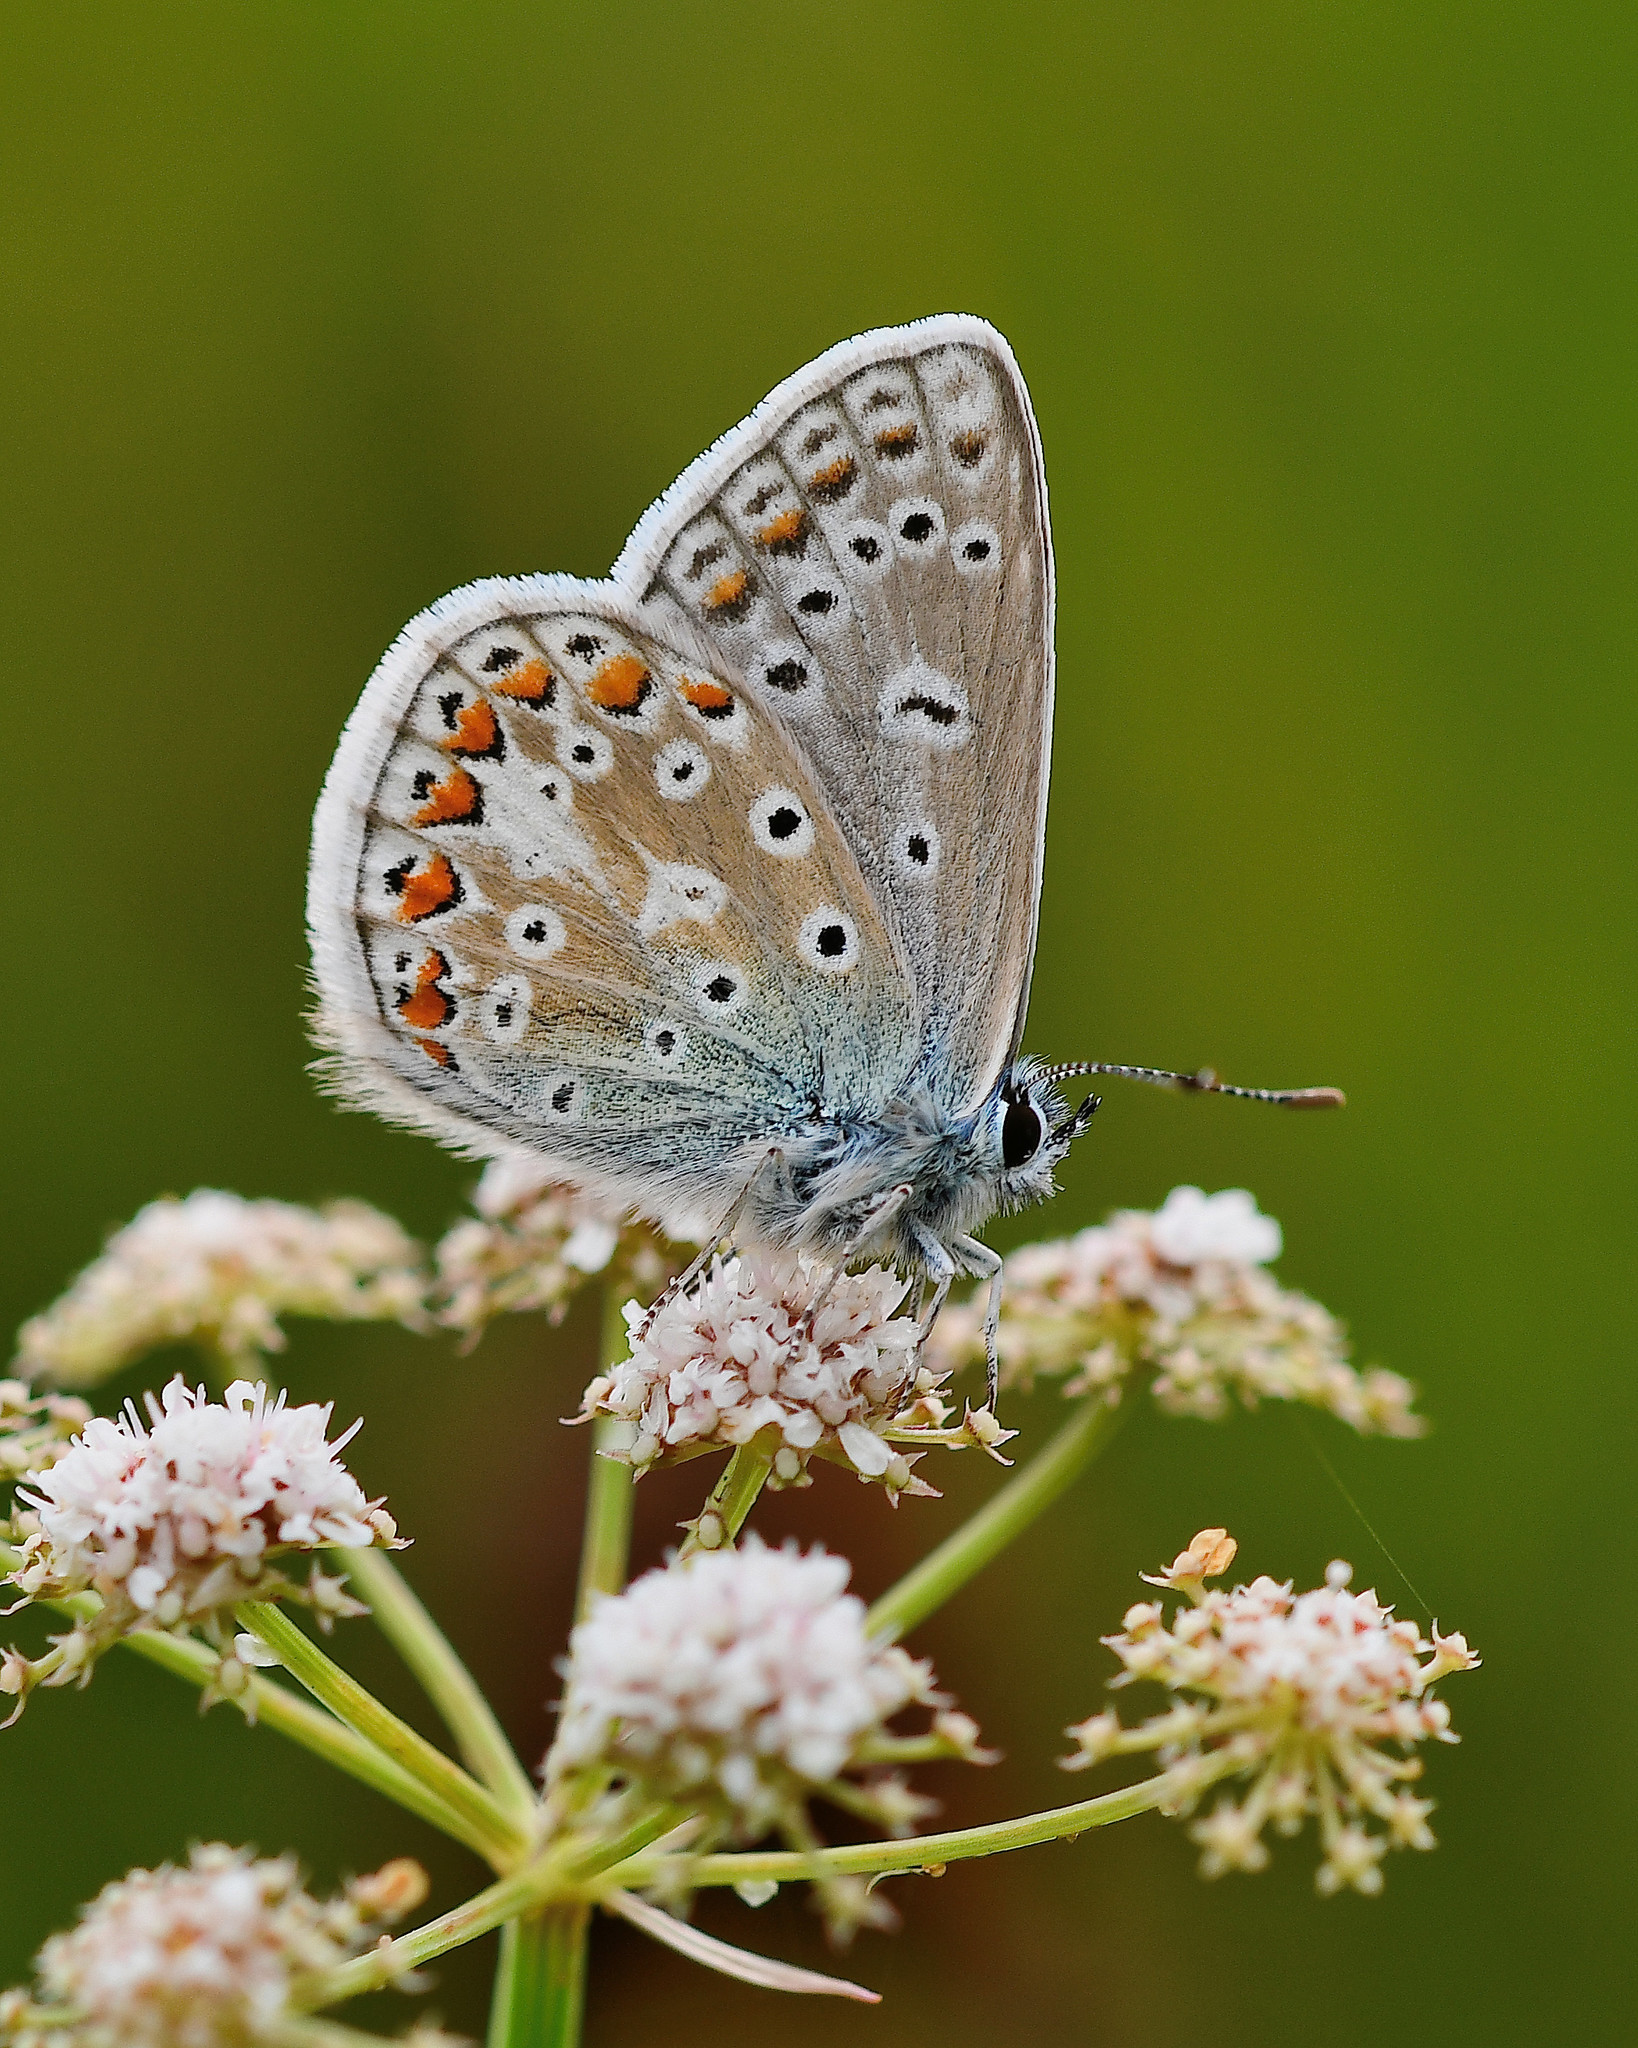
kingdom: Animalia
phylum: Arthropoda
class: Insecta
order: Lepidoptera
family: Lycaenidae
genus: Polyommatus
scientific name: Polyommatus icarus
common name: Common blue
